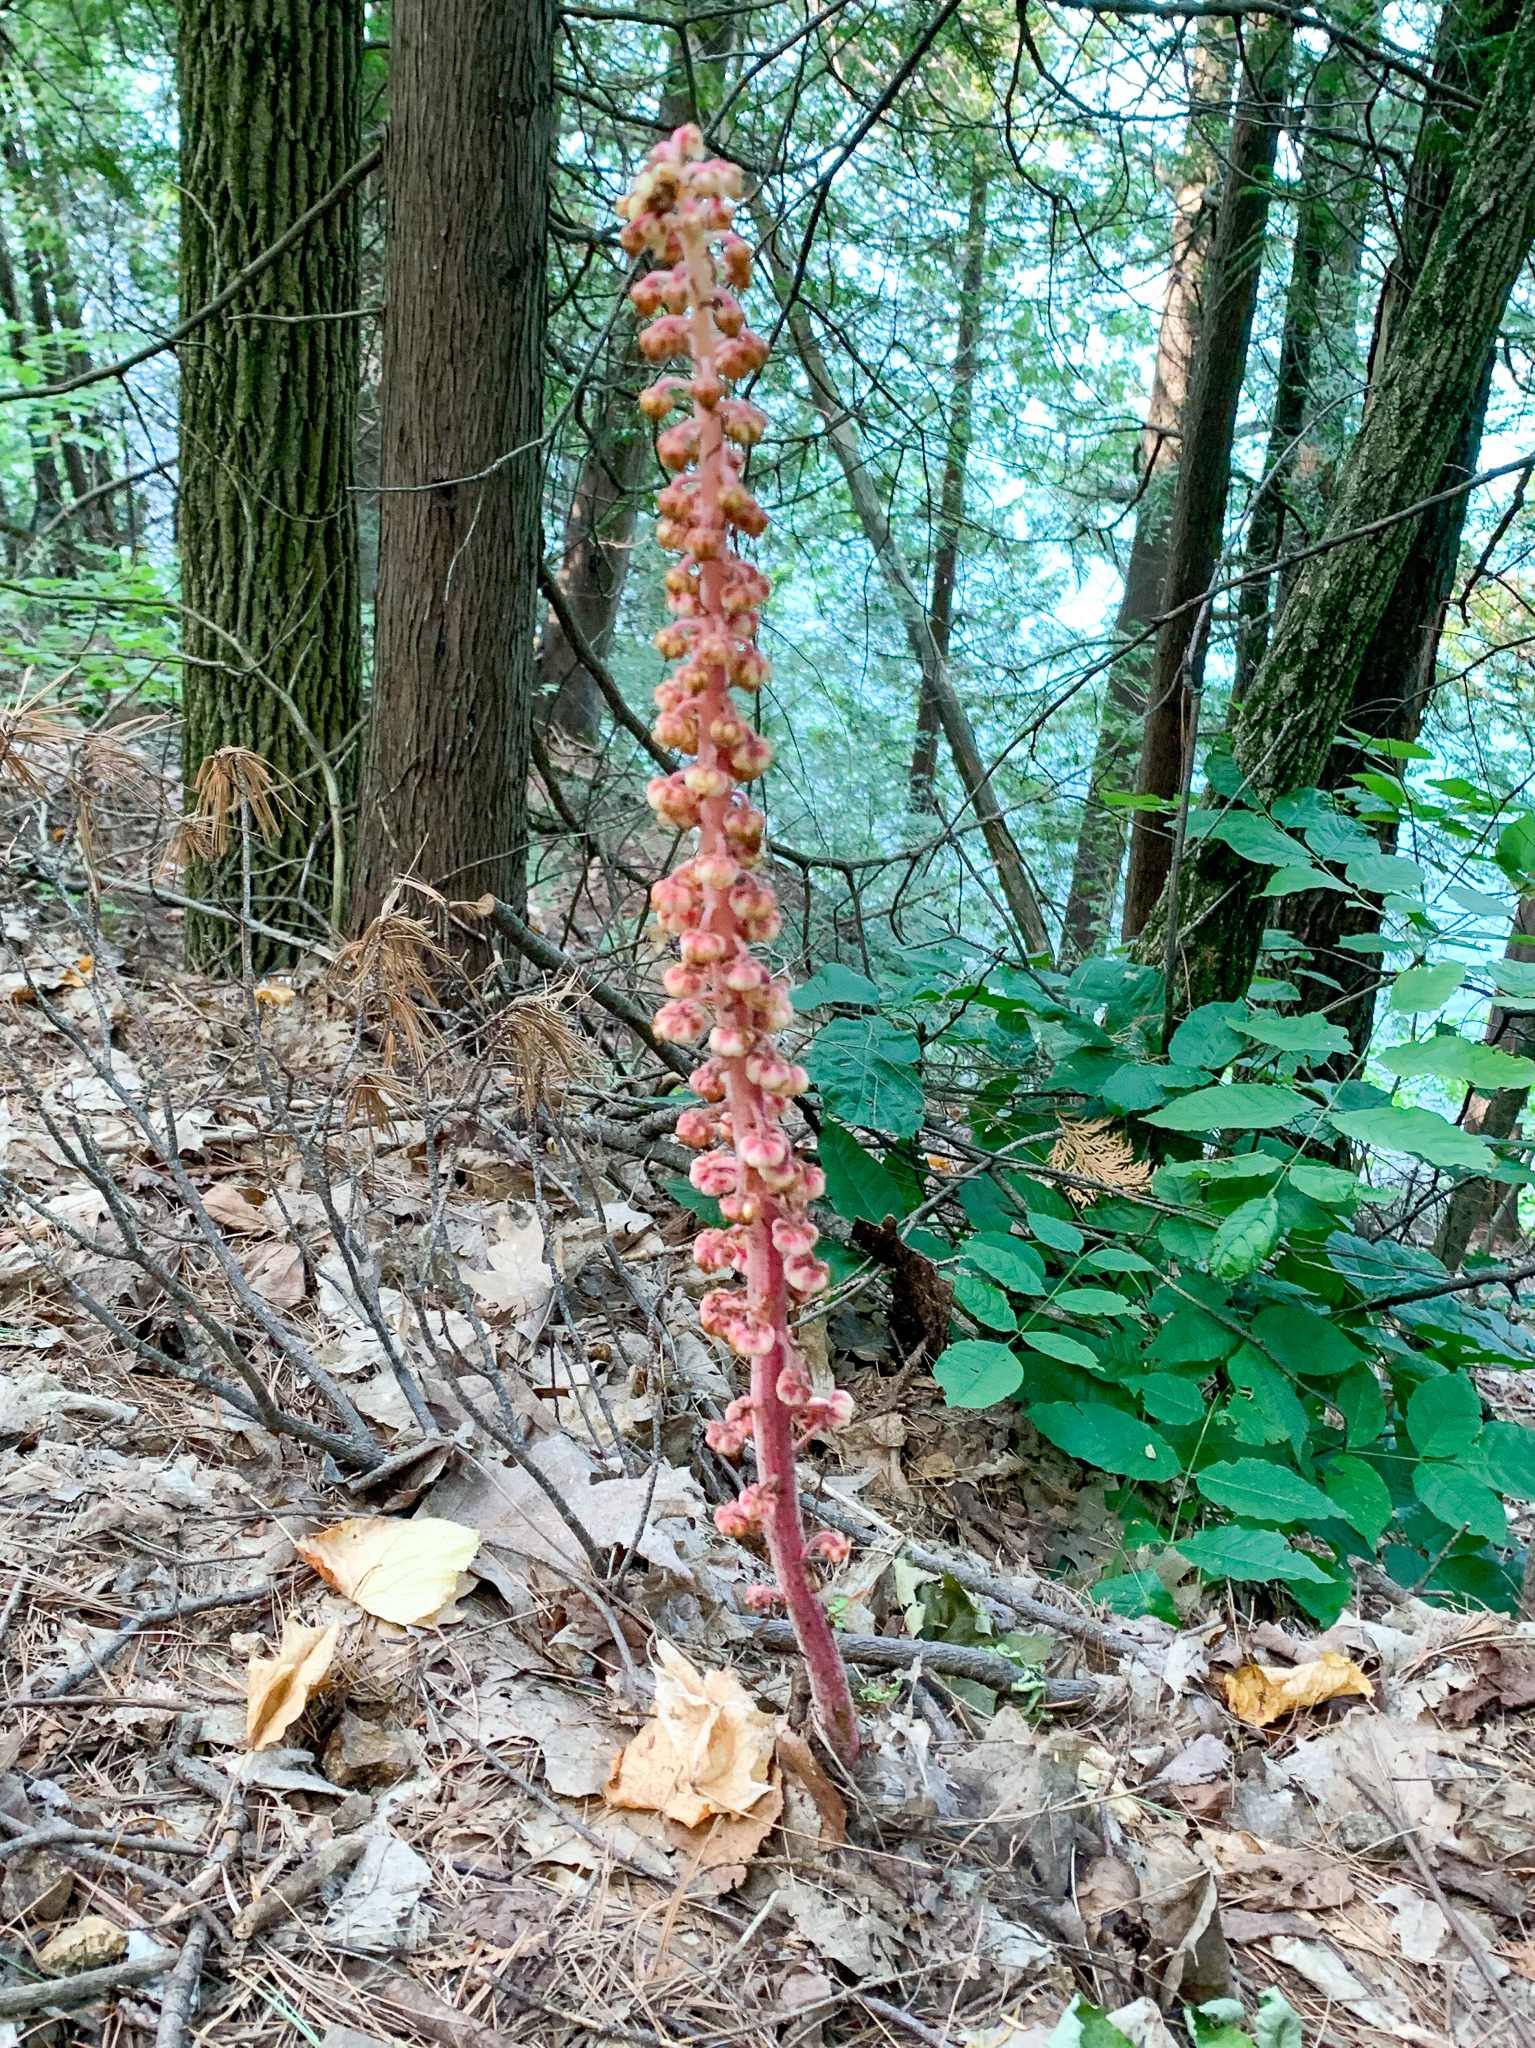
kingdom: Plantae
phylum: Tracheophyta
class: Magnoliopsida
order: Ericales
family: Ericaceae
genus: Pterospora
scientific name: Pterospora andromedea
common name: Giant bird's-nest
